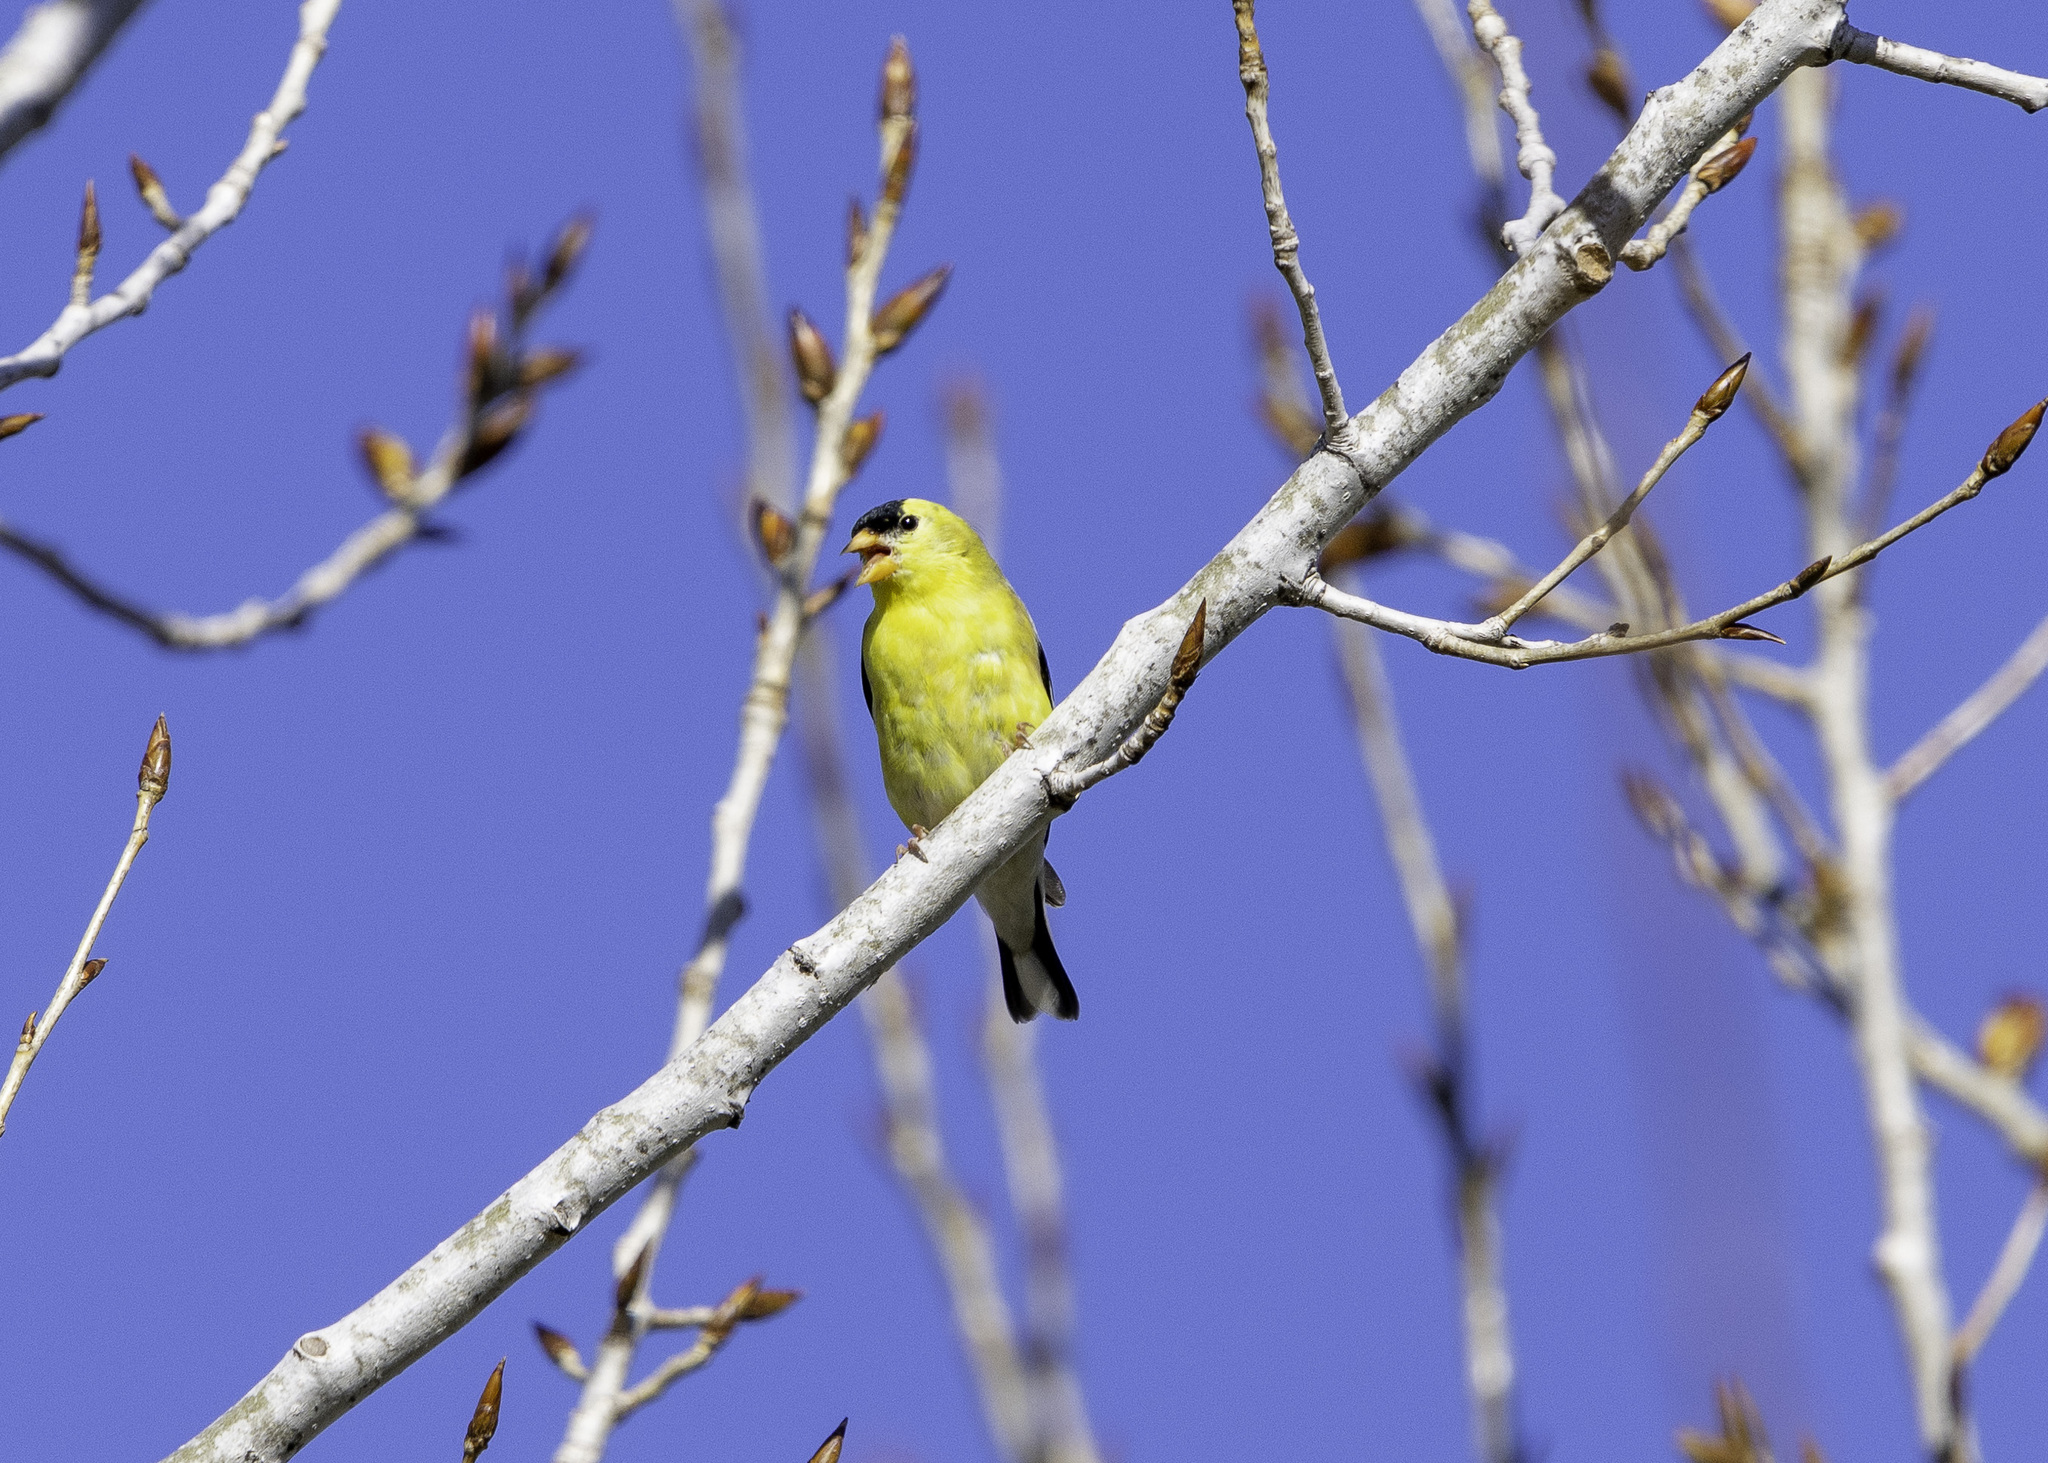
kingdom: Animalia
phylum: Chordata
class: Aves
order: Passeriformes
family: Fringillidae
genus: Spinus
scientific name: Spinus tristis
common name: American goldfinch
